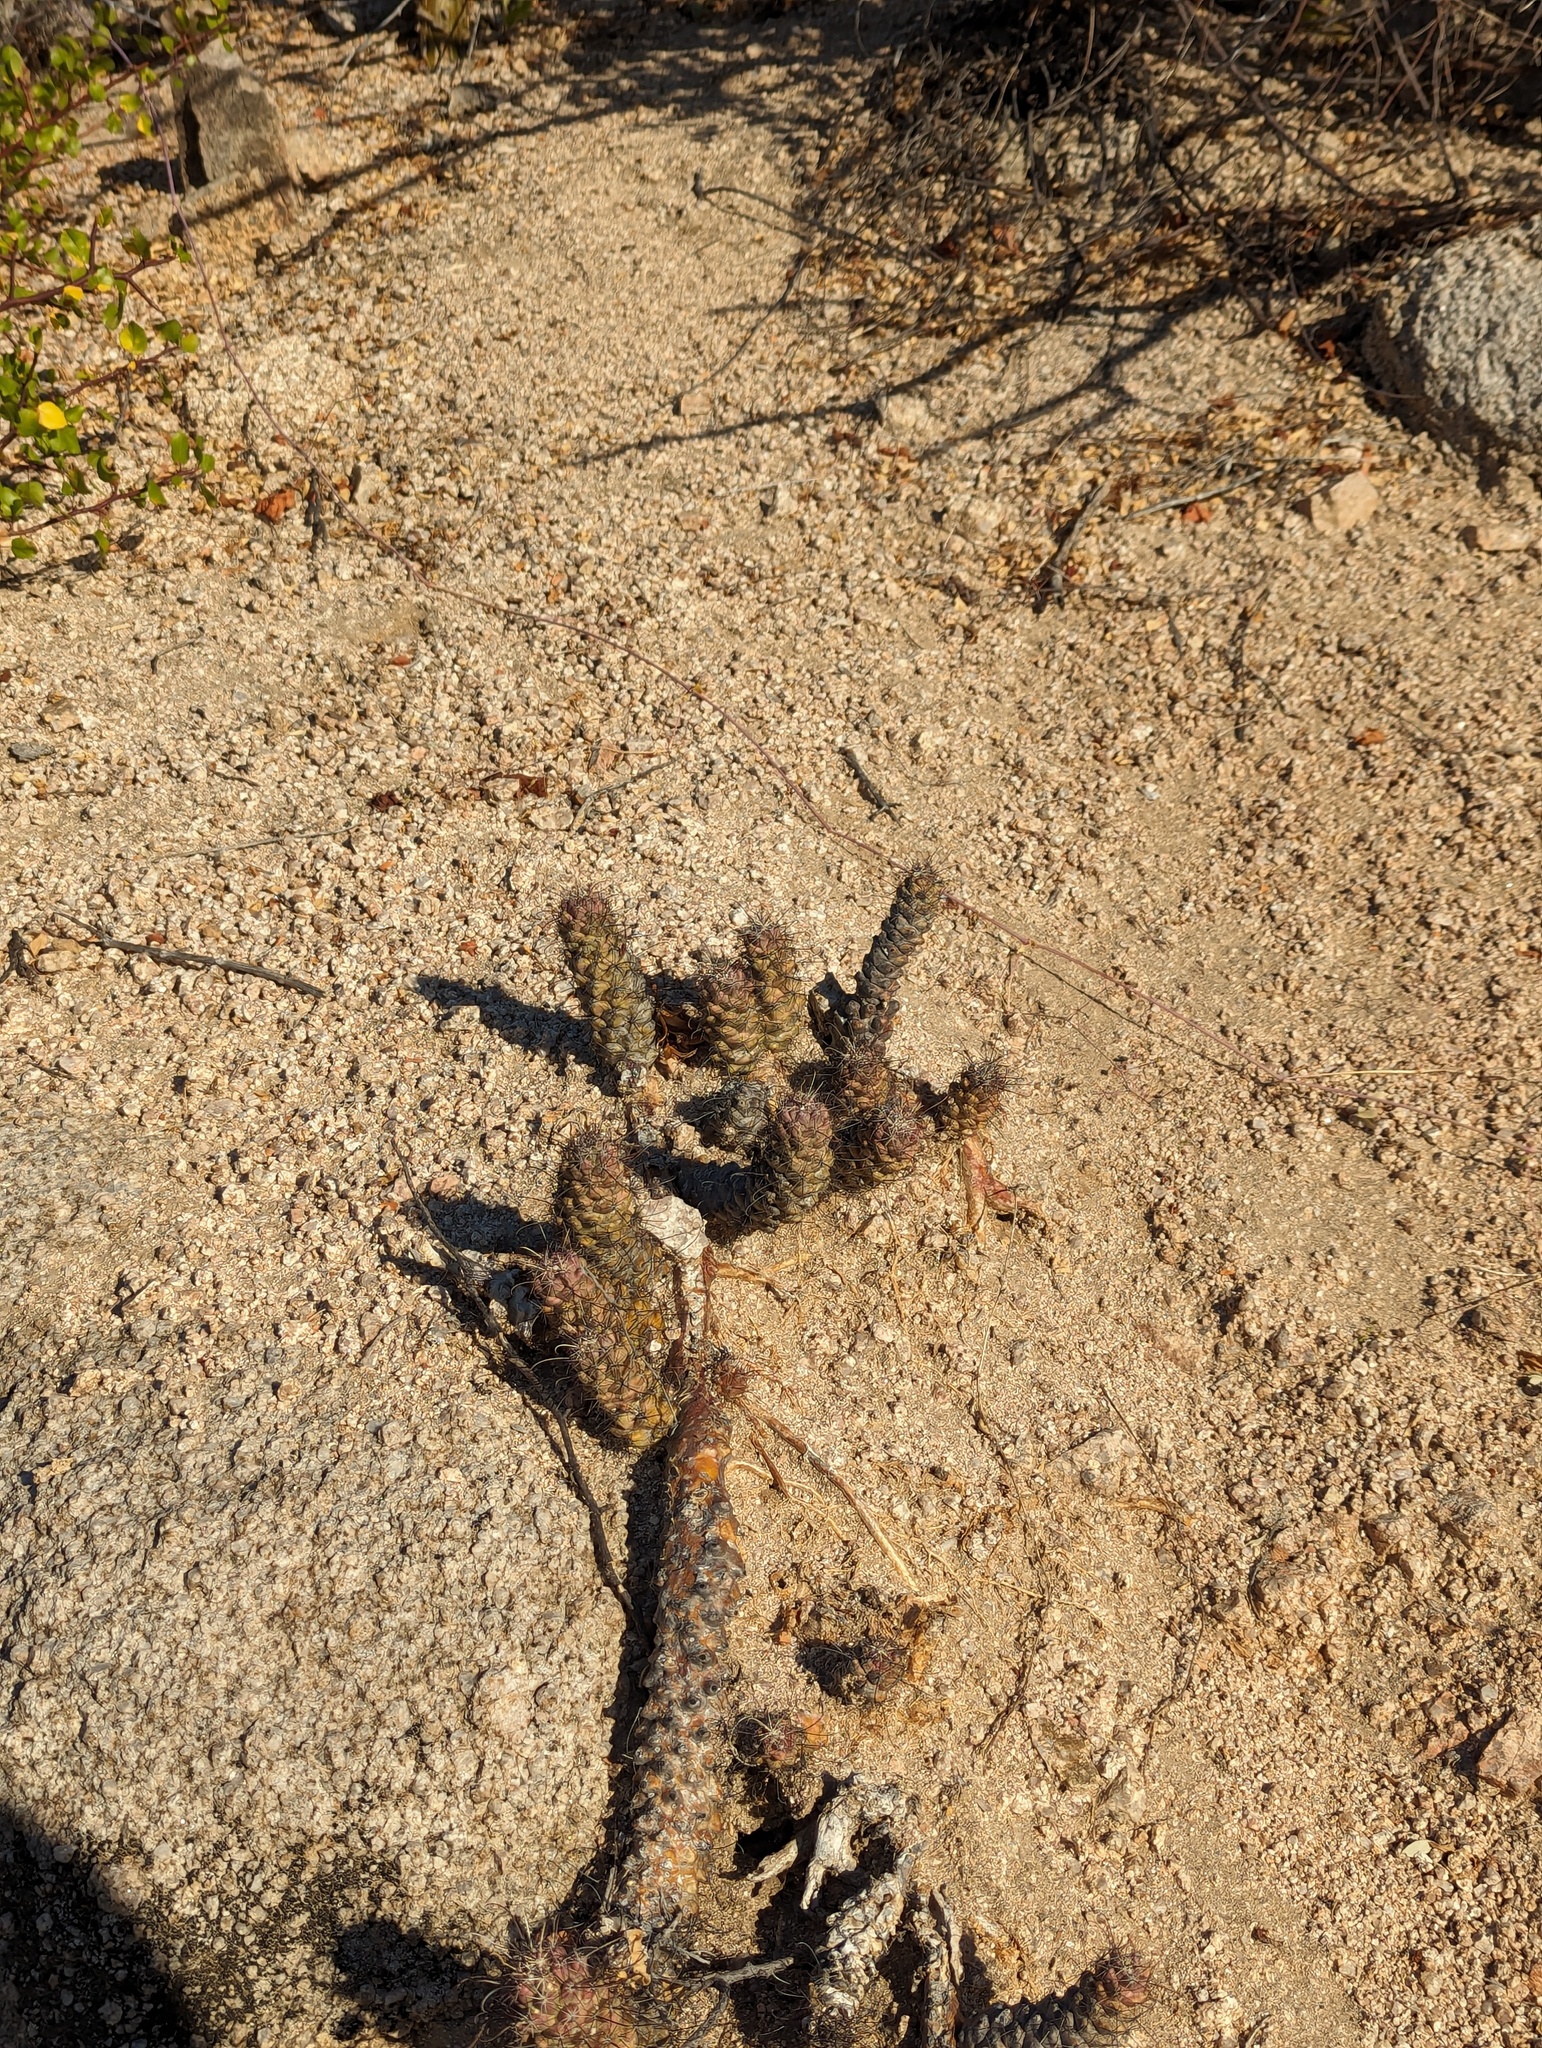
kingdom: Plantae
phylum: Tracheophyta
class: Magnoliopsida
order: Caryophyllales
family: Cactaceae
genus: Cochemiea
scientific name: Cochemiea poselgeri
